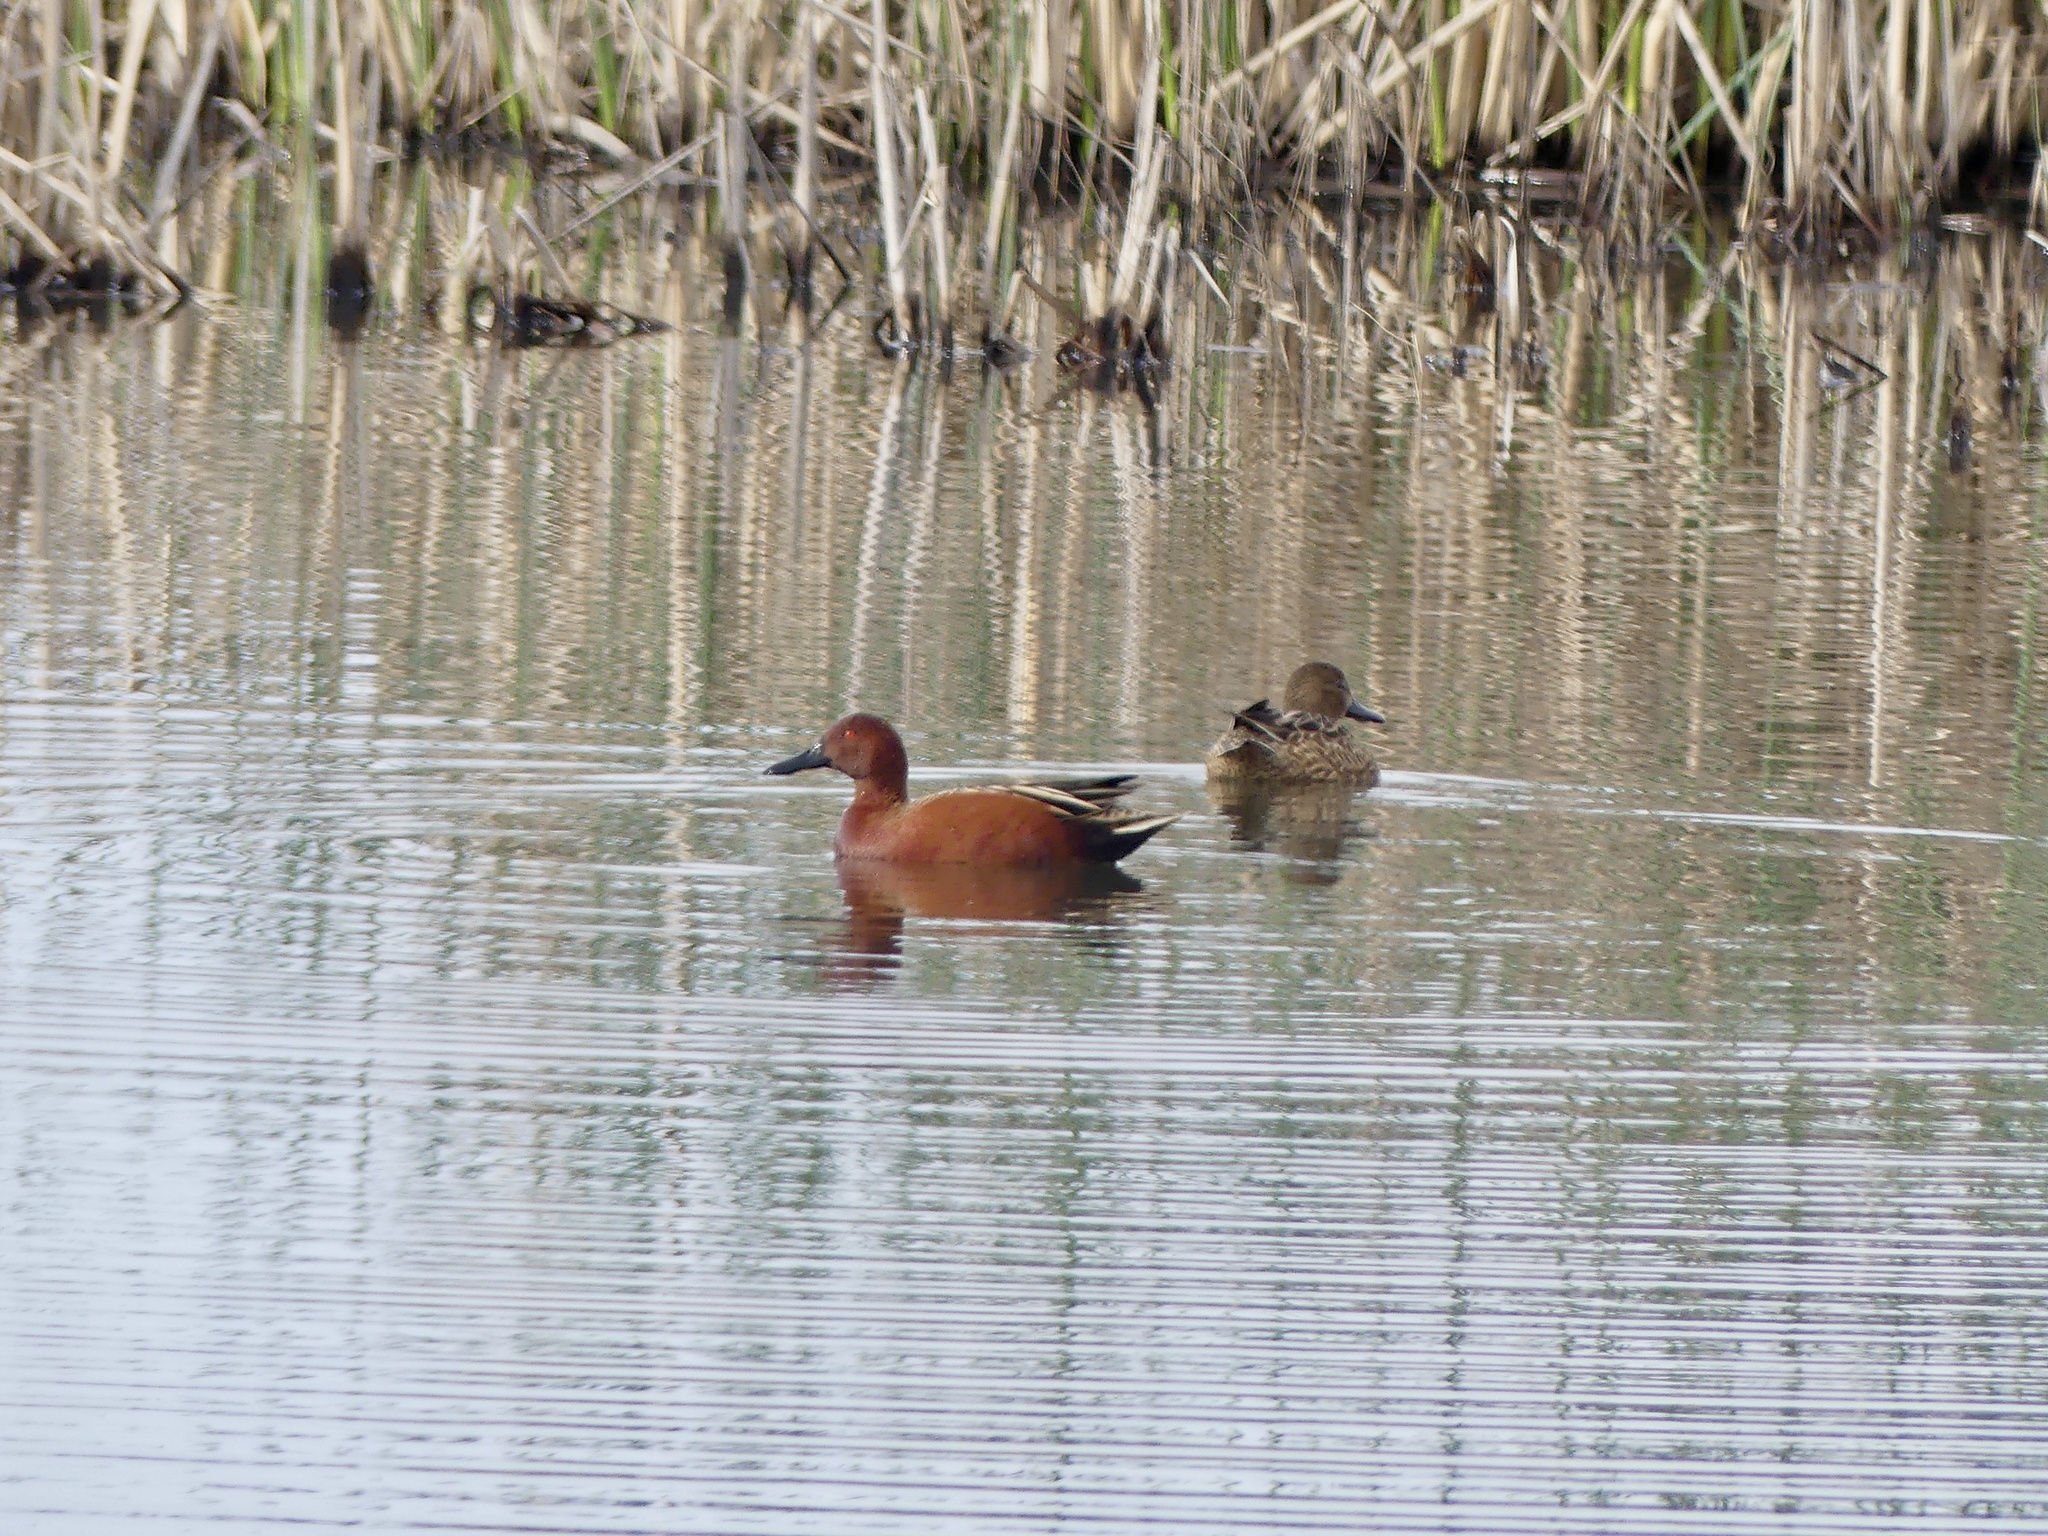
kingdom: Animalia
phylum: Chordata
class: Aves
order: Anseriformes
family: Anatidae
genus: Spatula
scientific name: Spatula cyanoptera
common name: Cinnamon teal
